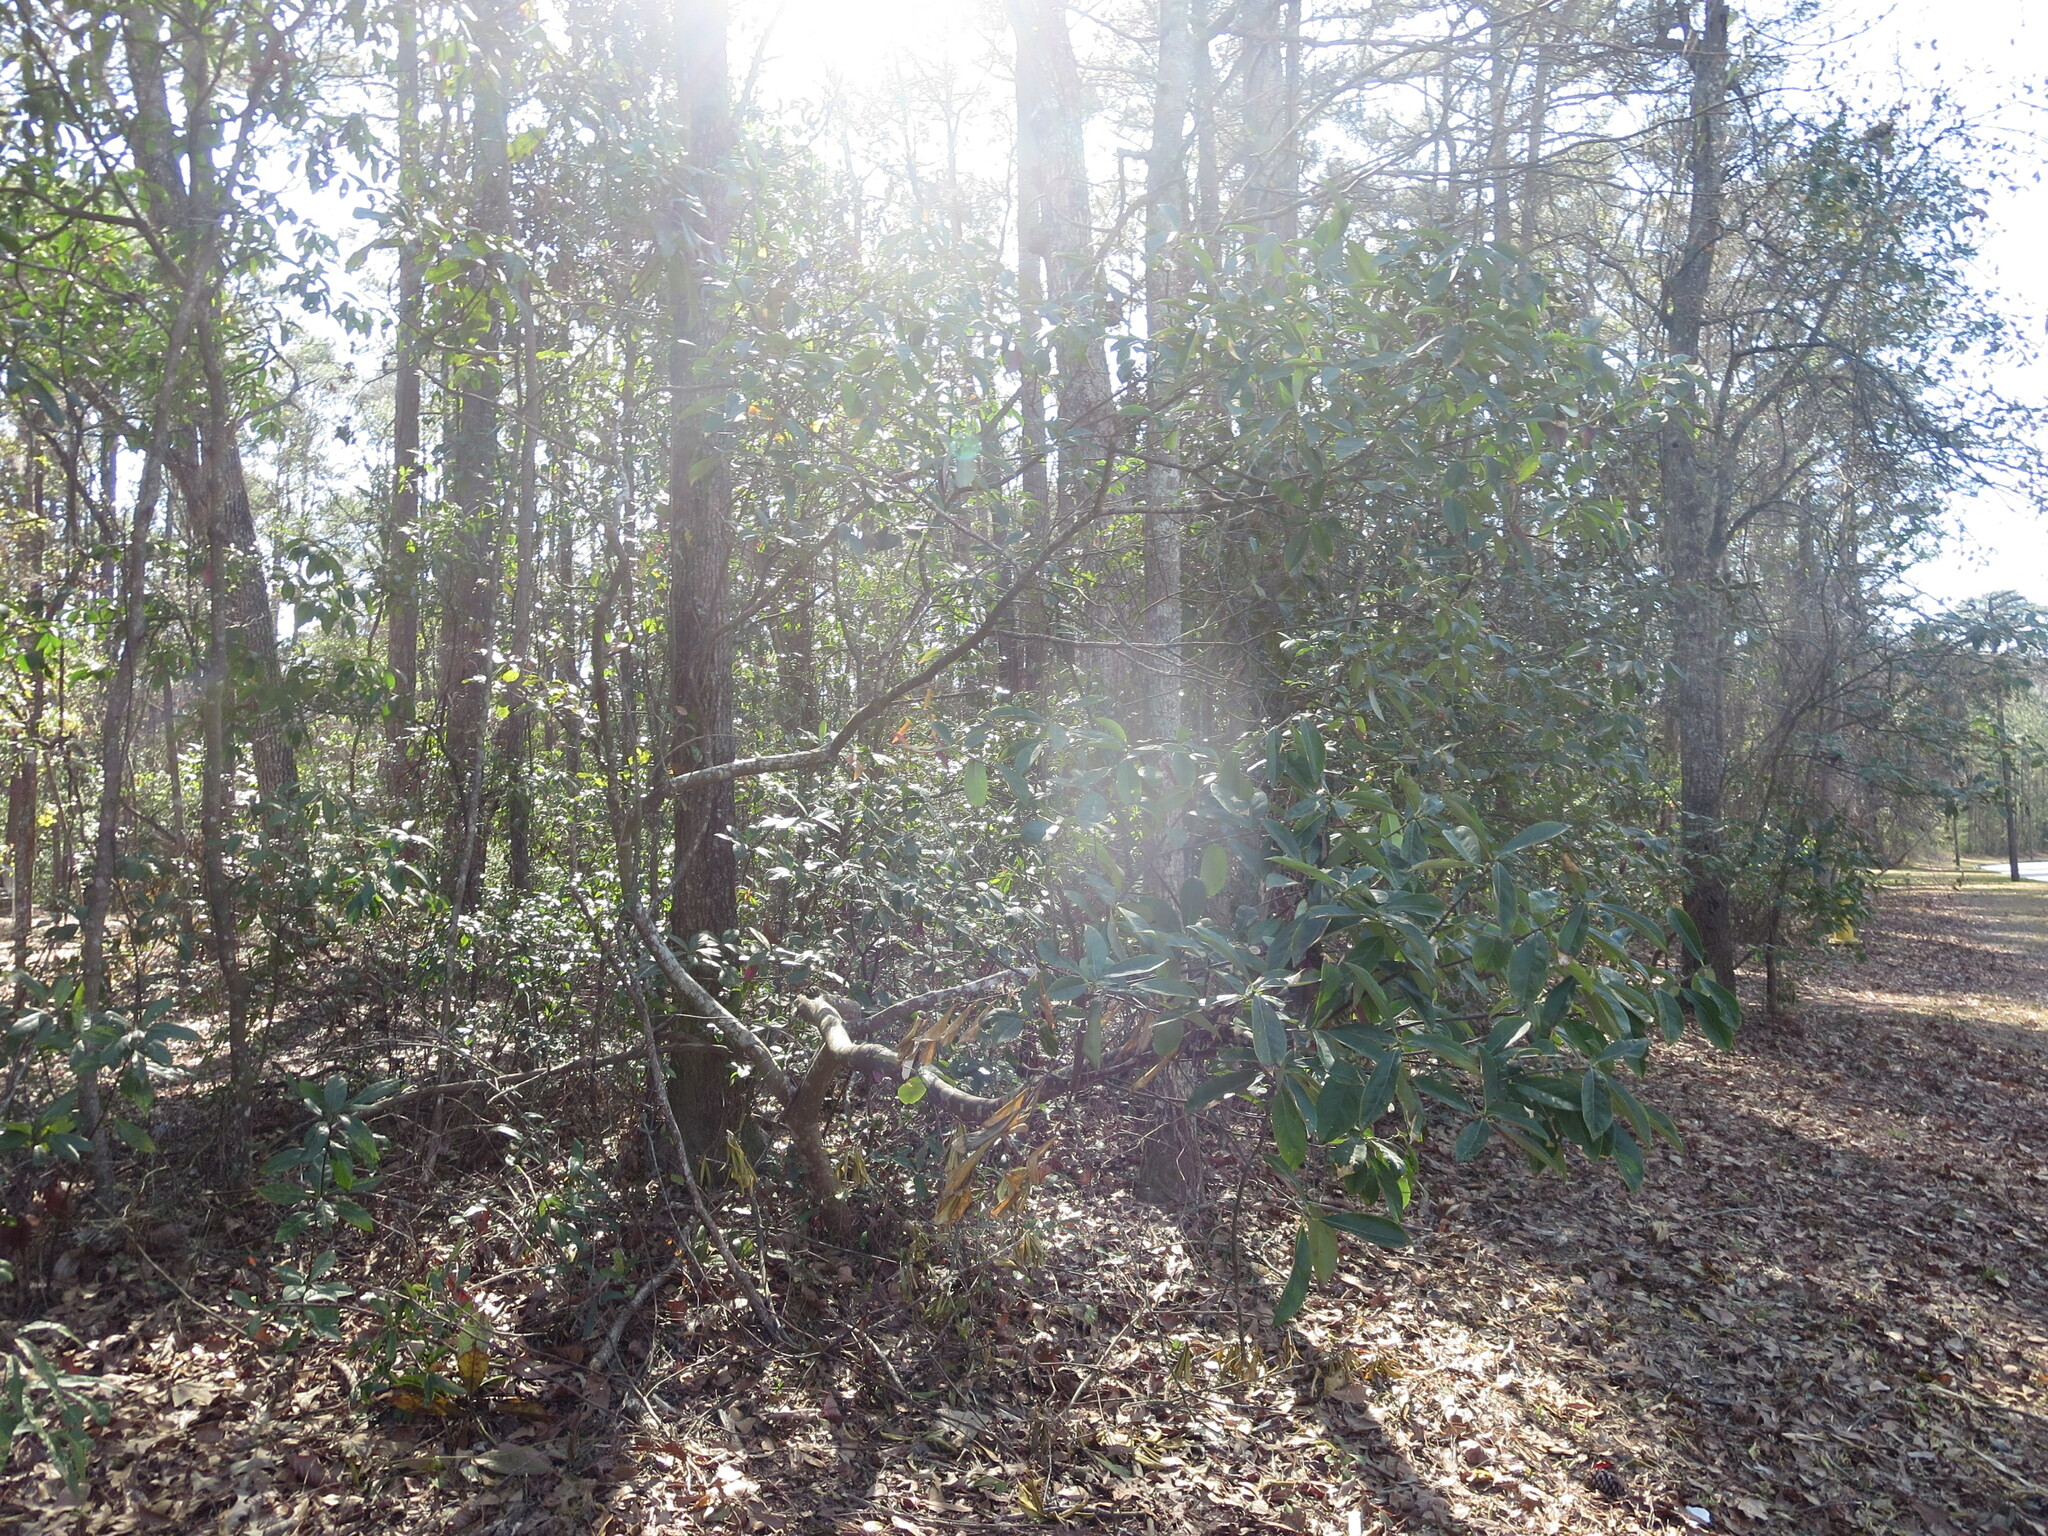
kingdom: Plantae
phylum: Tracheophyta
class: Magnoliopsida
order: Ericales
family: Symplocaceae
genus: Symplocos
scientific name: Symplocos tinctoria
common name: Horse-sugar
